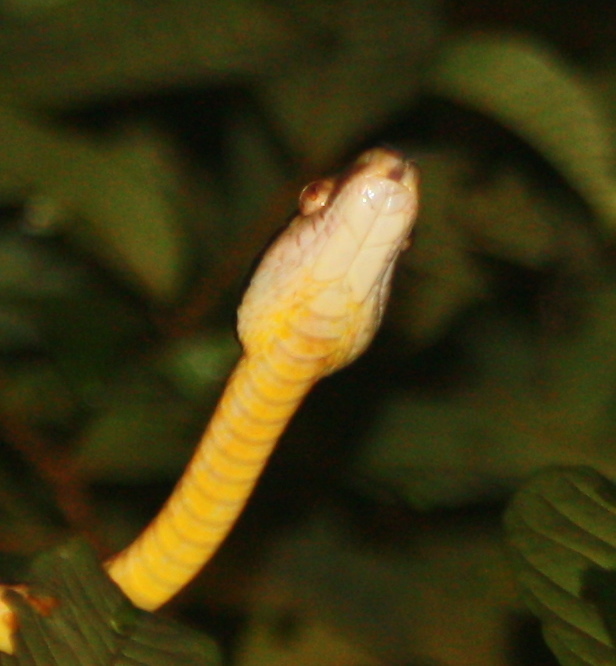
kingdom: Animalia
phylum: Chordata
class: Squamata
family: Colubridae
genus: Boiga
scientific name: Boiga cynodon
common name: Dog-toothed cat snake
